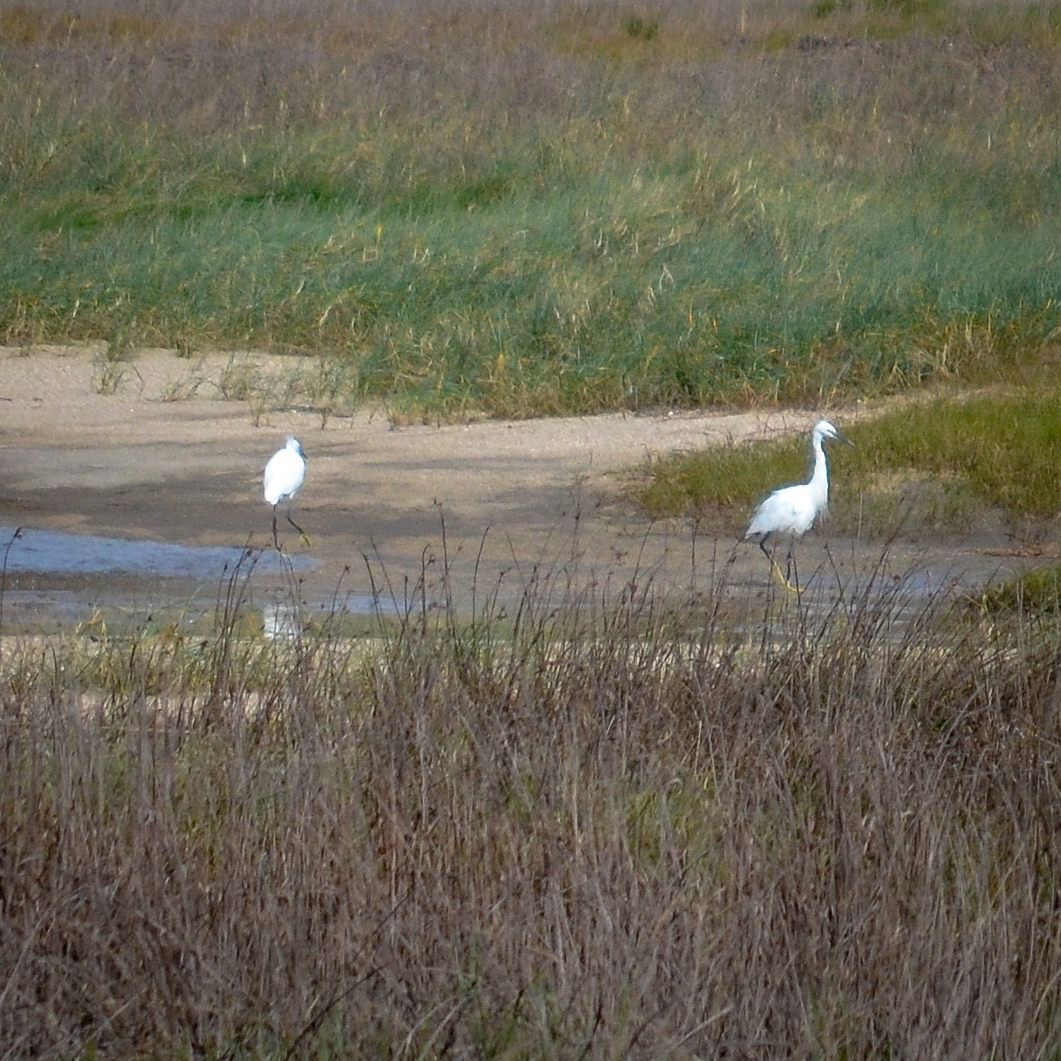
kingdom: Animalia
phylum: Chordata
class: Aves
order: Pelecaniformes
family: Ardeidae
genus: Egretta
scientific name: Egretta garzetta
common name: Little egret
